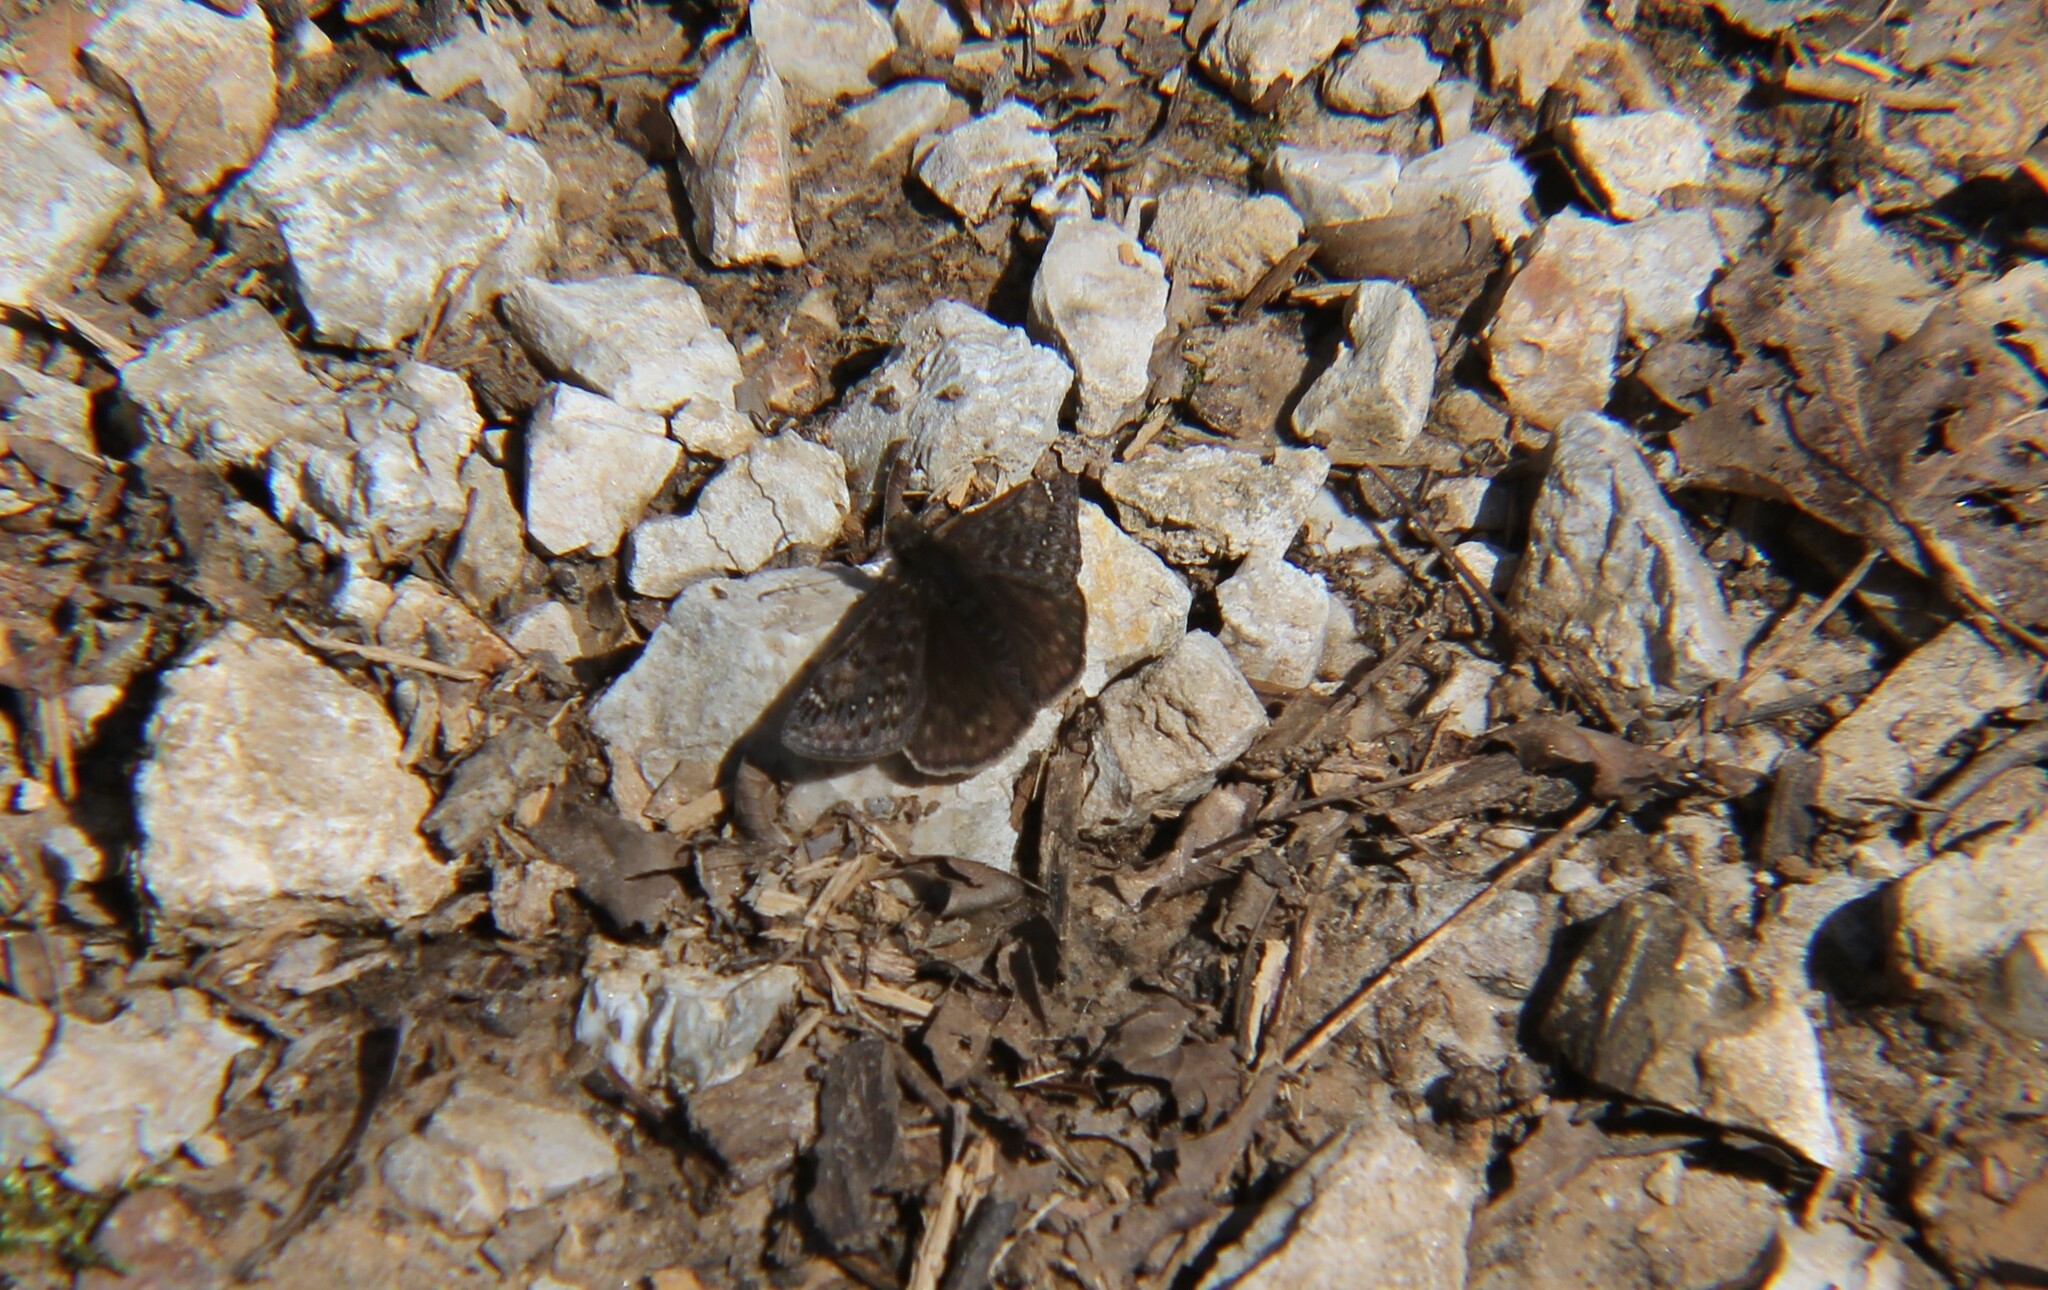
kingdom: Animalia
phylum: Arthropoda
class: Insecta
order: Lepidoptera
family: Hesperiidae
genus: Erynnis
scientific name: Erynnis juvenalis
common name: Juvenal's duskywing
